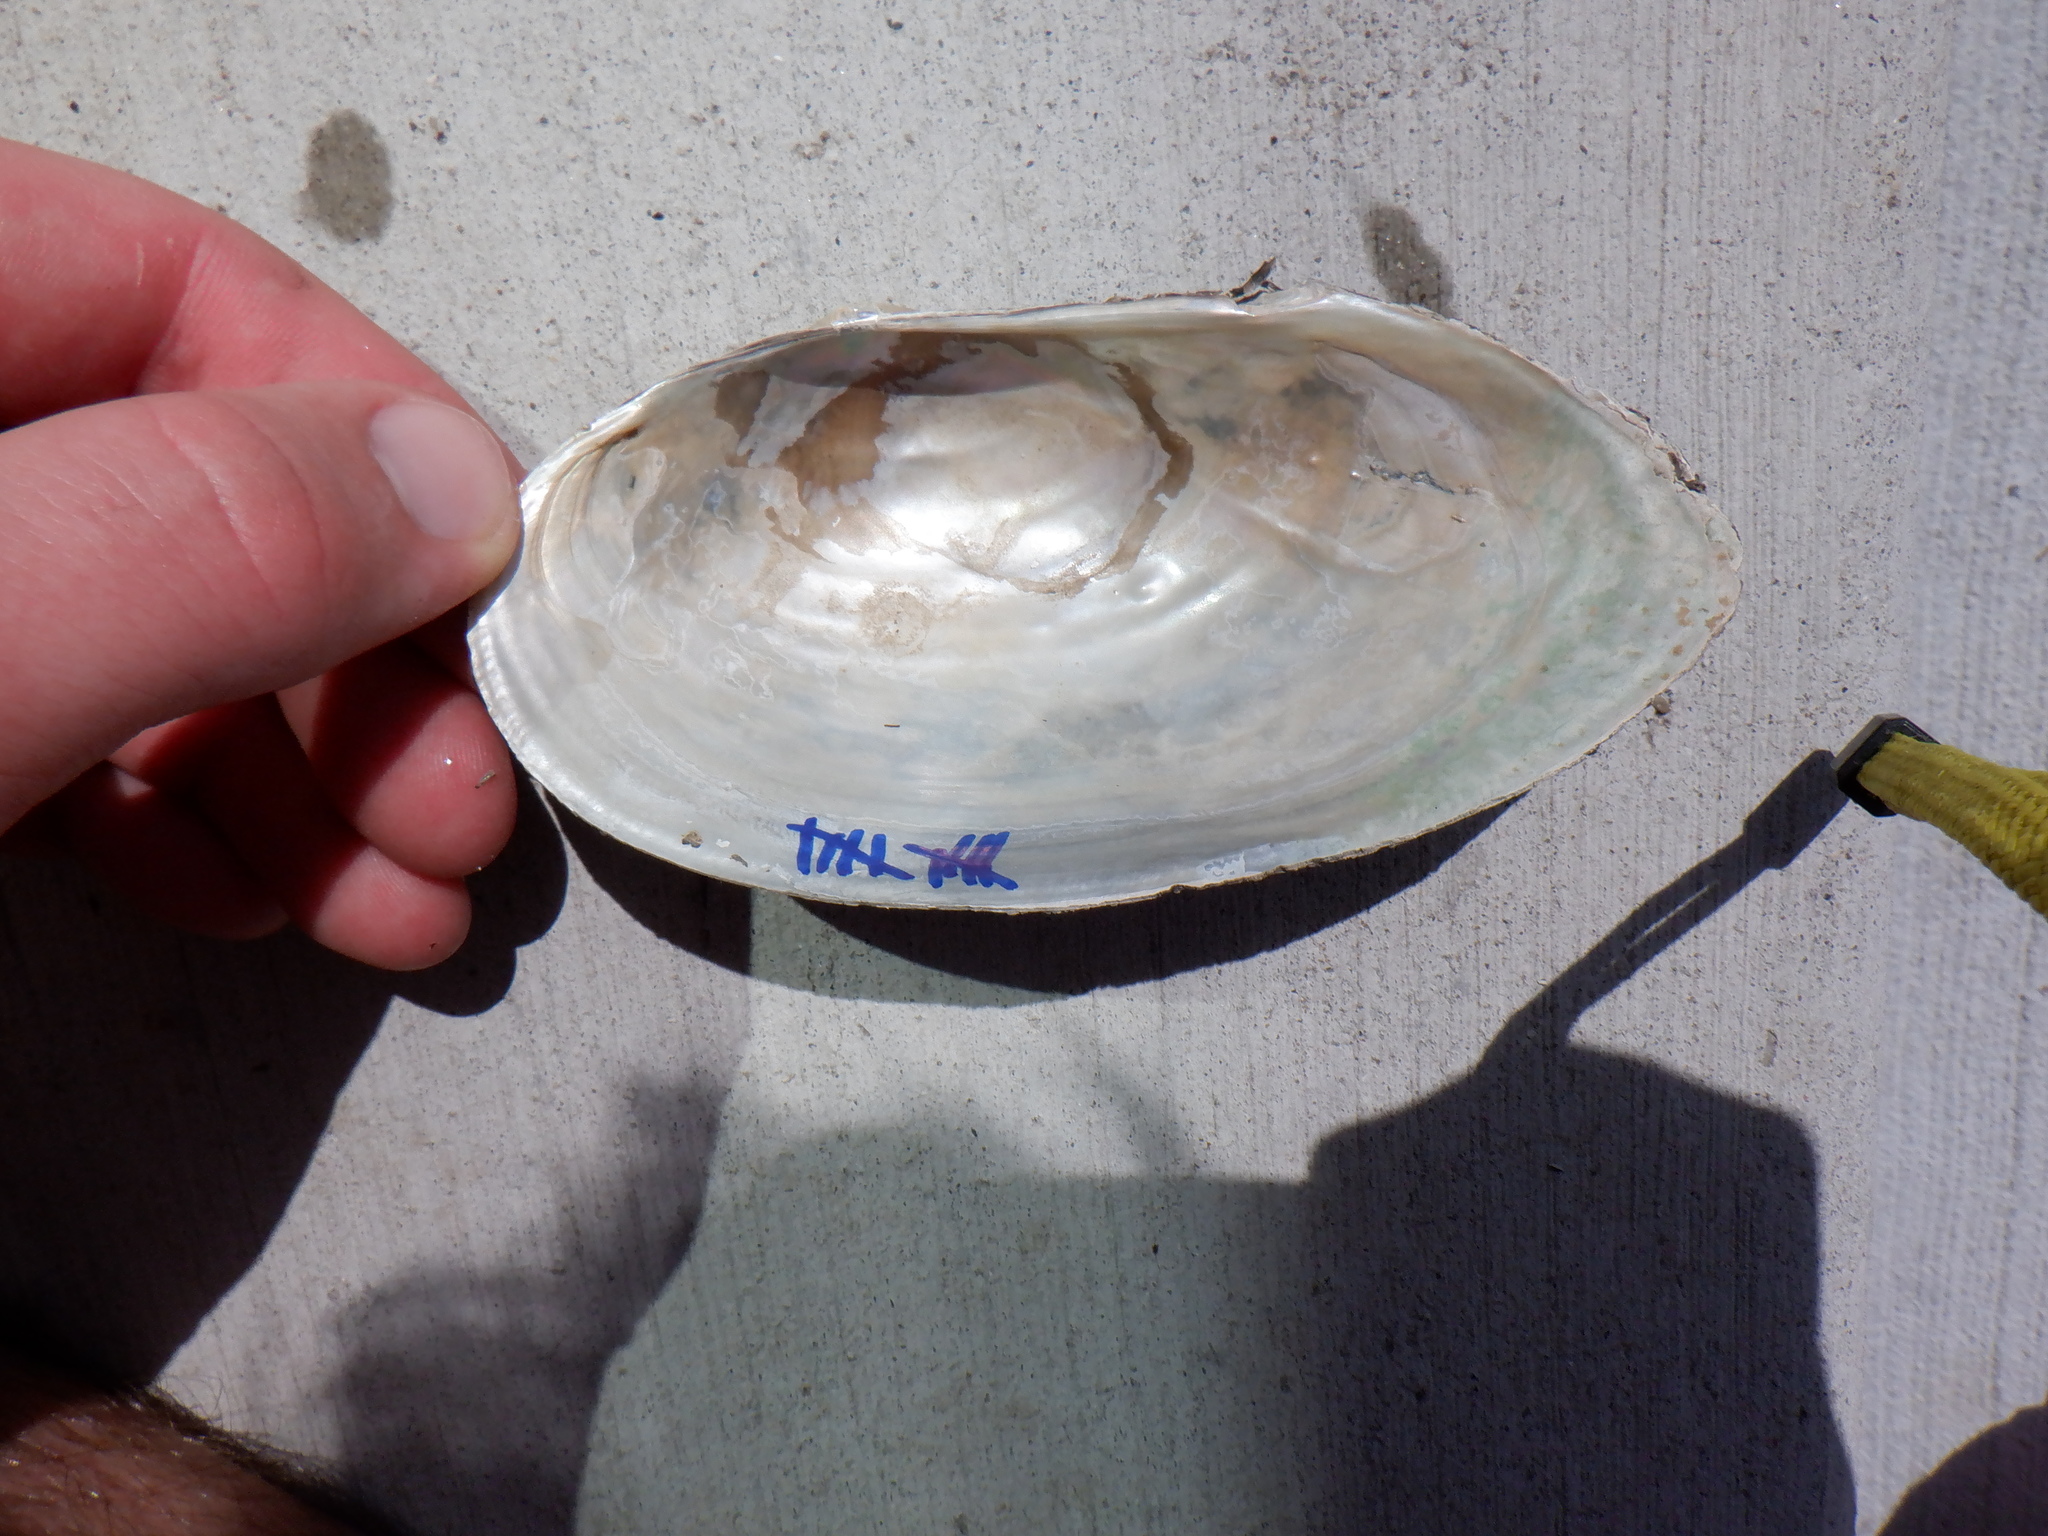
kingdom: Animalia
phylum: Mollusca
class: Bivalvia
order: Unionida
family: Unionidae
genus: Pyganodon
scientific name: Pyganodon grandis
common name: Giant floater
